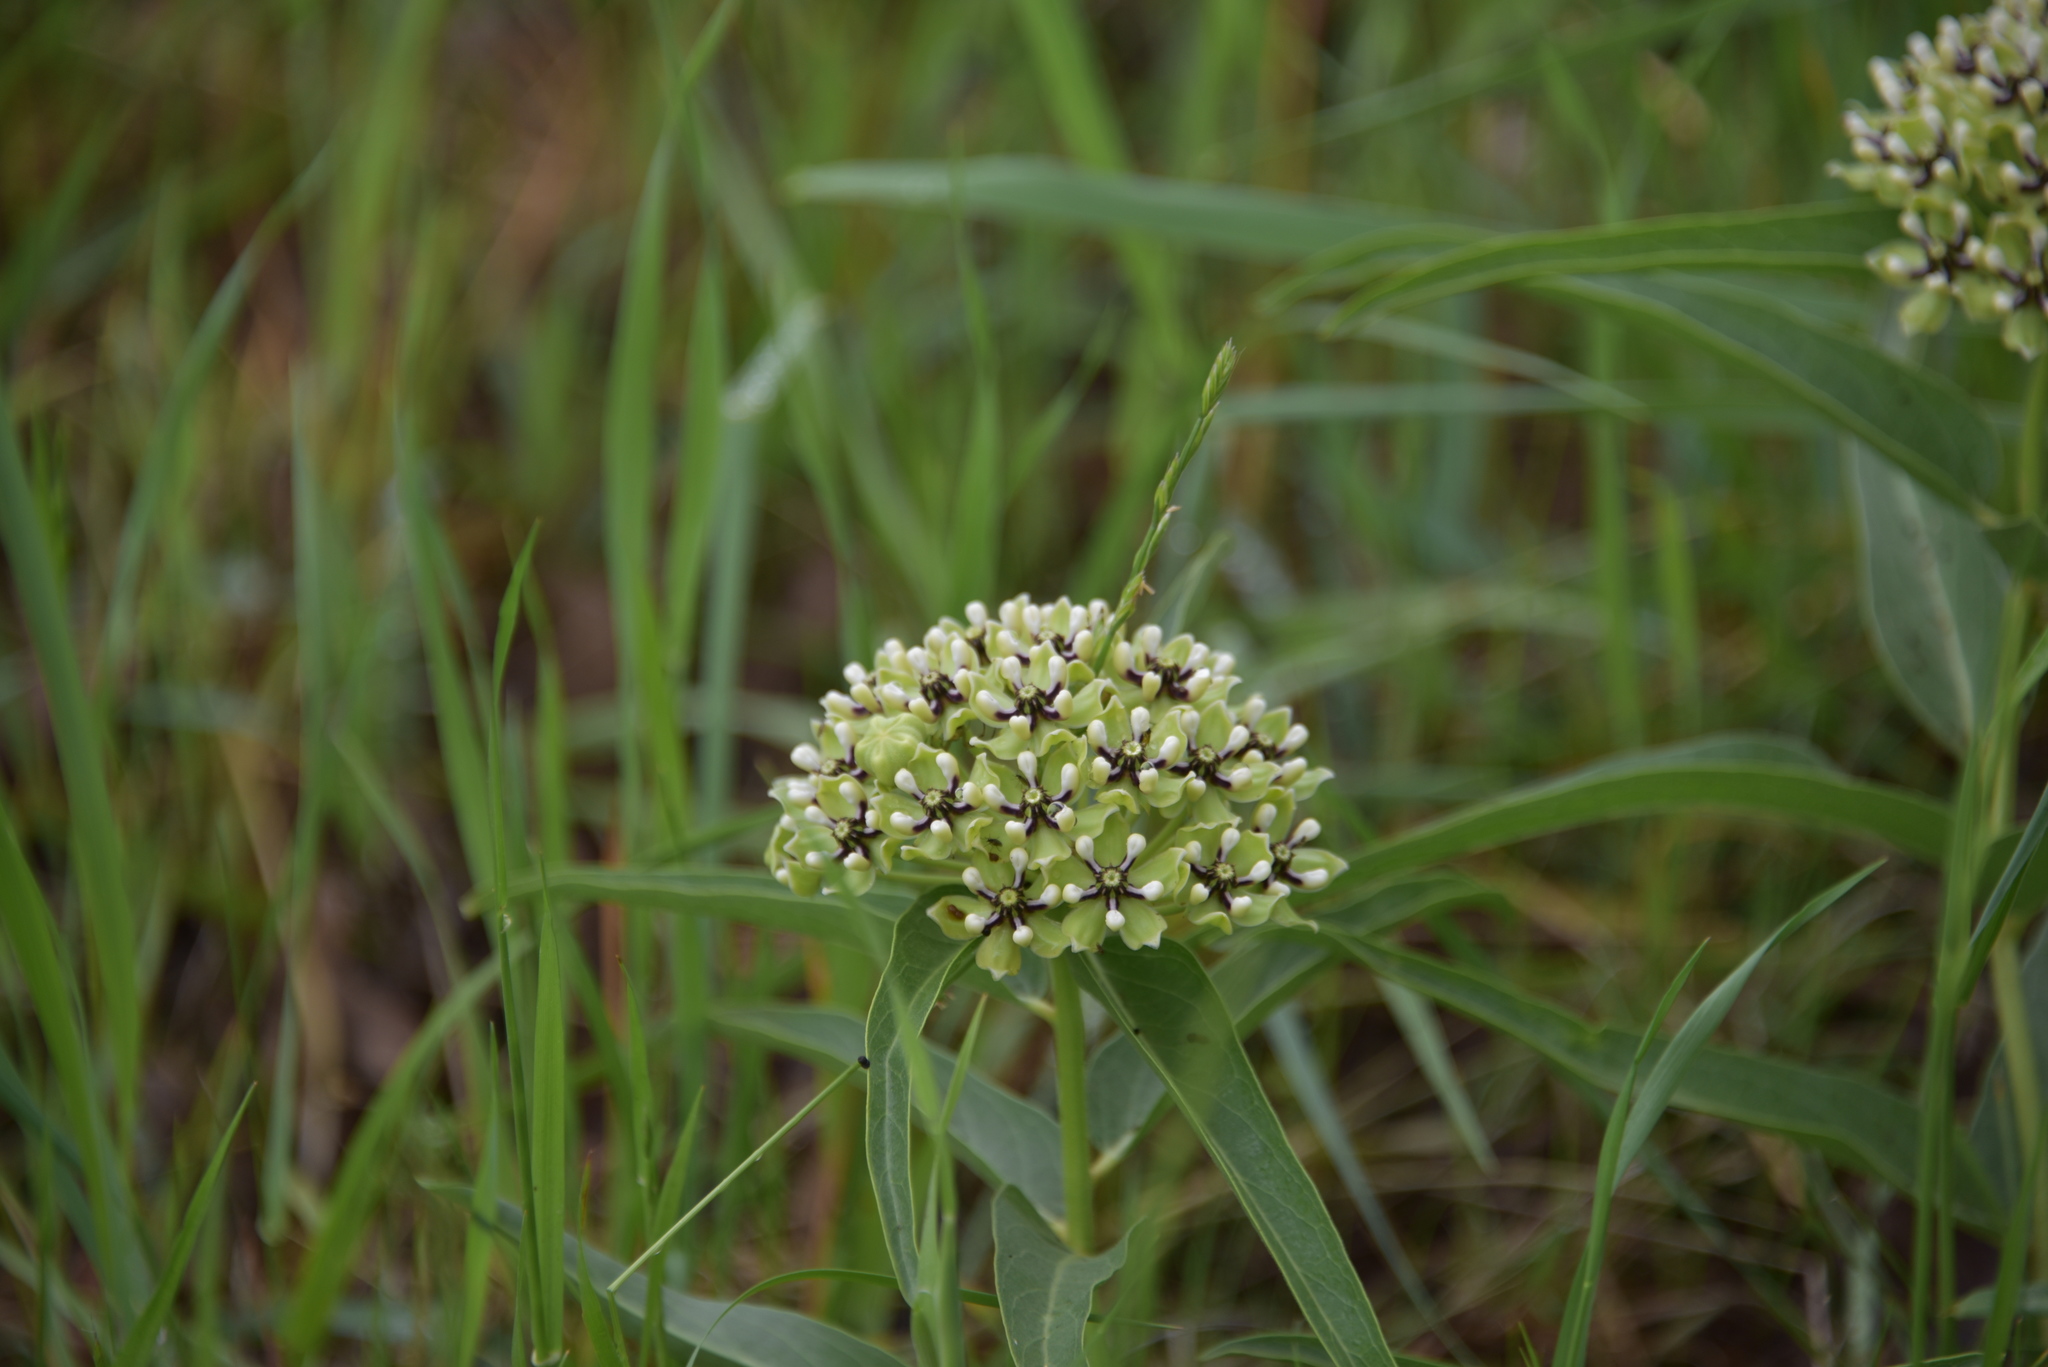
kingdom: Plantae
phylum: Tracheophyta
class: Magnoliopsida
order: Gentianales
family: Apocynaceae
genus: Asclepias
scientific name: Asclepias asperula
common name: Antelope horns
